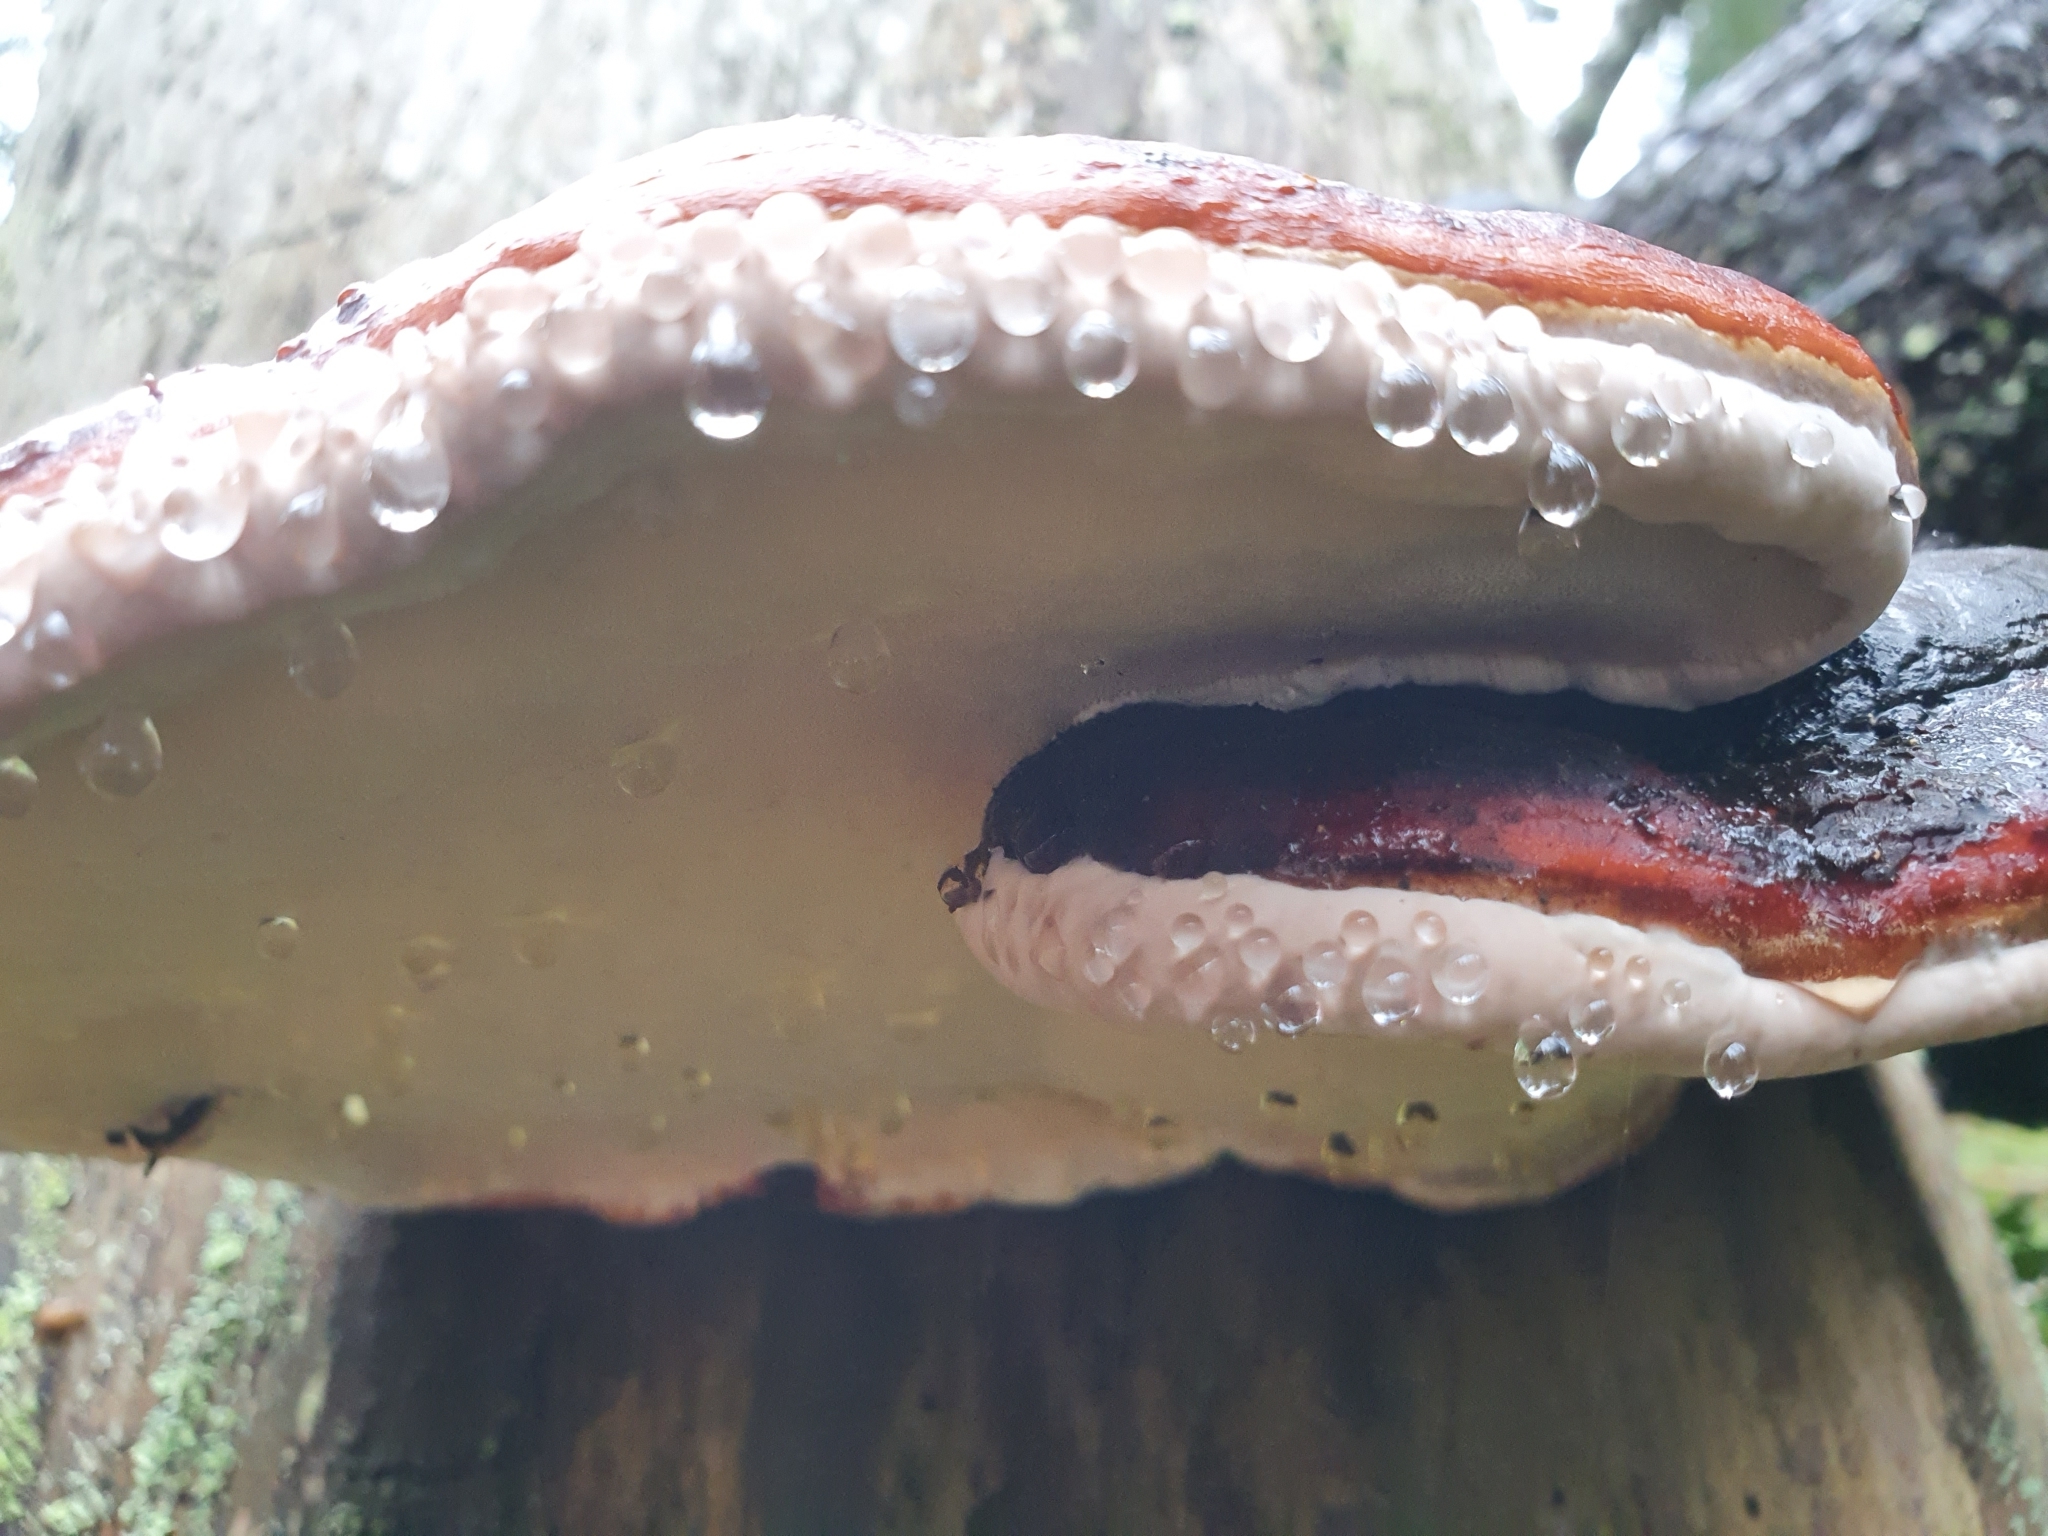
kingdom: Fungi
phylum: Basidiomycota
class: Agaricomycetes
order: Polyporales
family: Fomitopsidaceae
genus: Fomitopsis
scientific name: Fomitopsis pinicola
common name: Red-belted bracket
